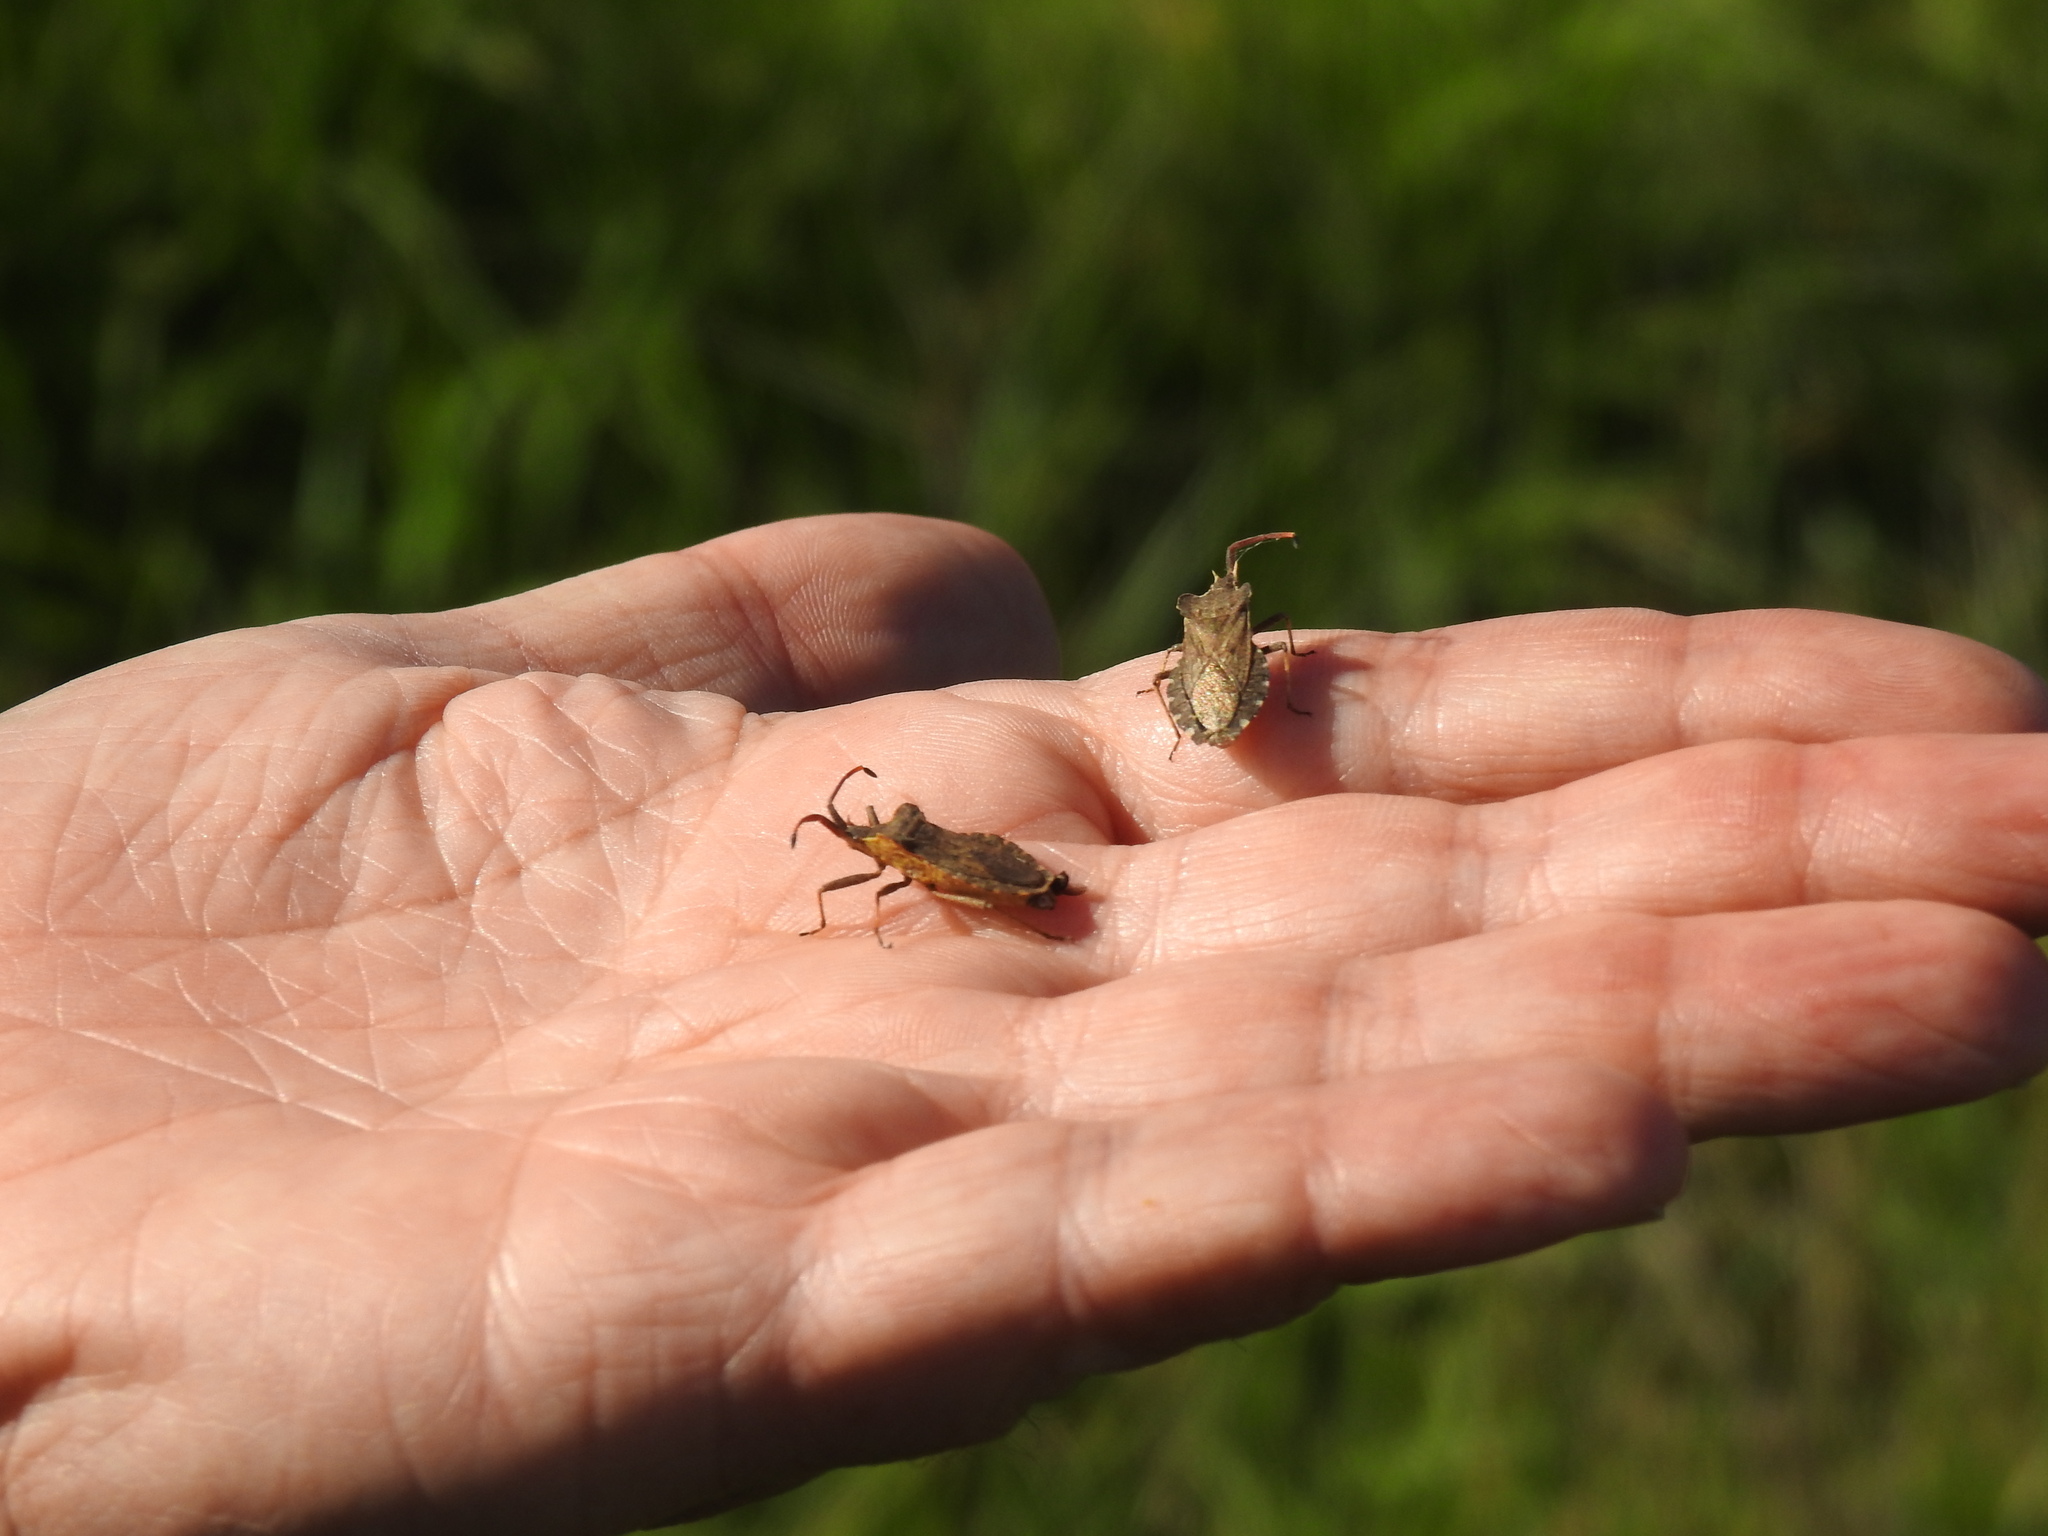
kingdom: Animalia
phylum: Arthropoda
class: Insecta
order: Hemiptera
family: Coreidae
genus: Enoplops
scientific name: Enoplops bos
